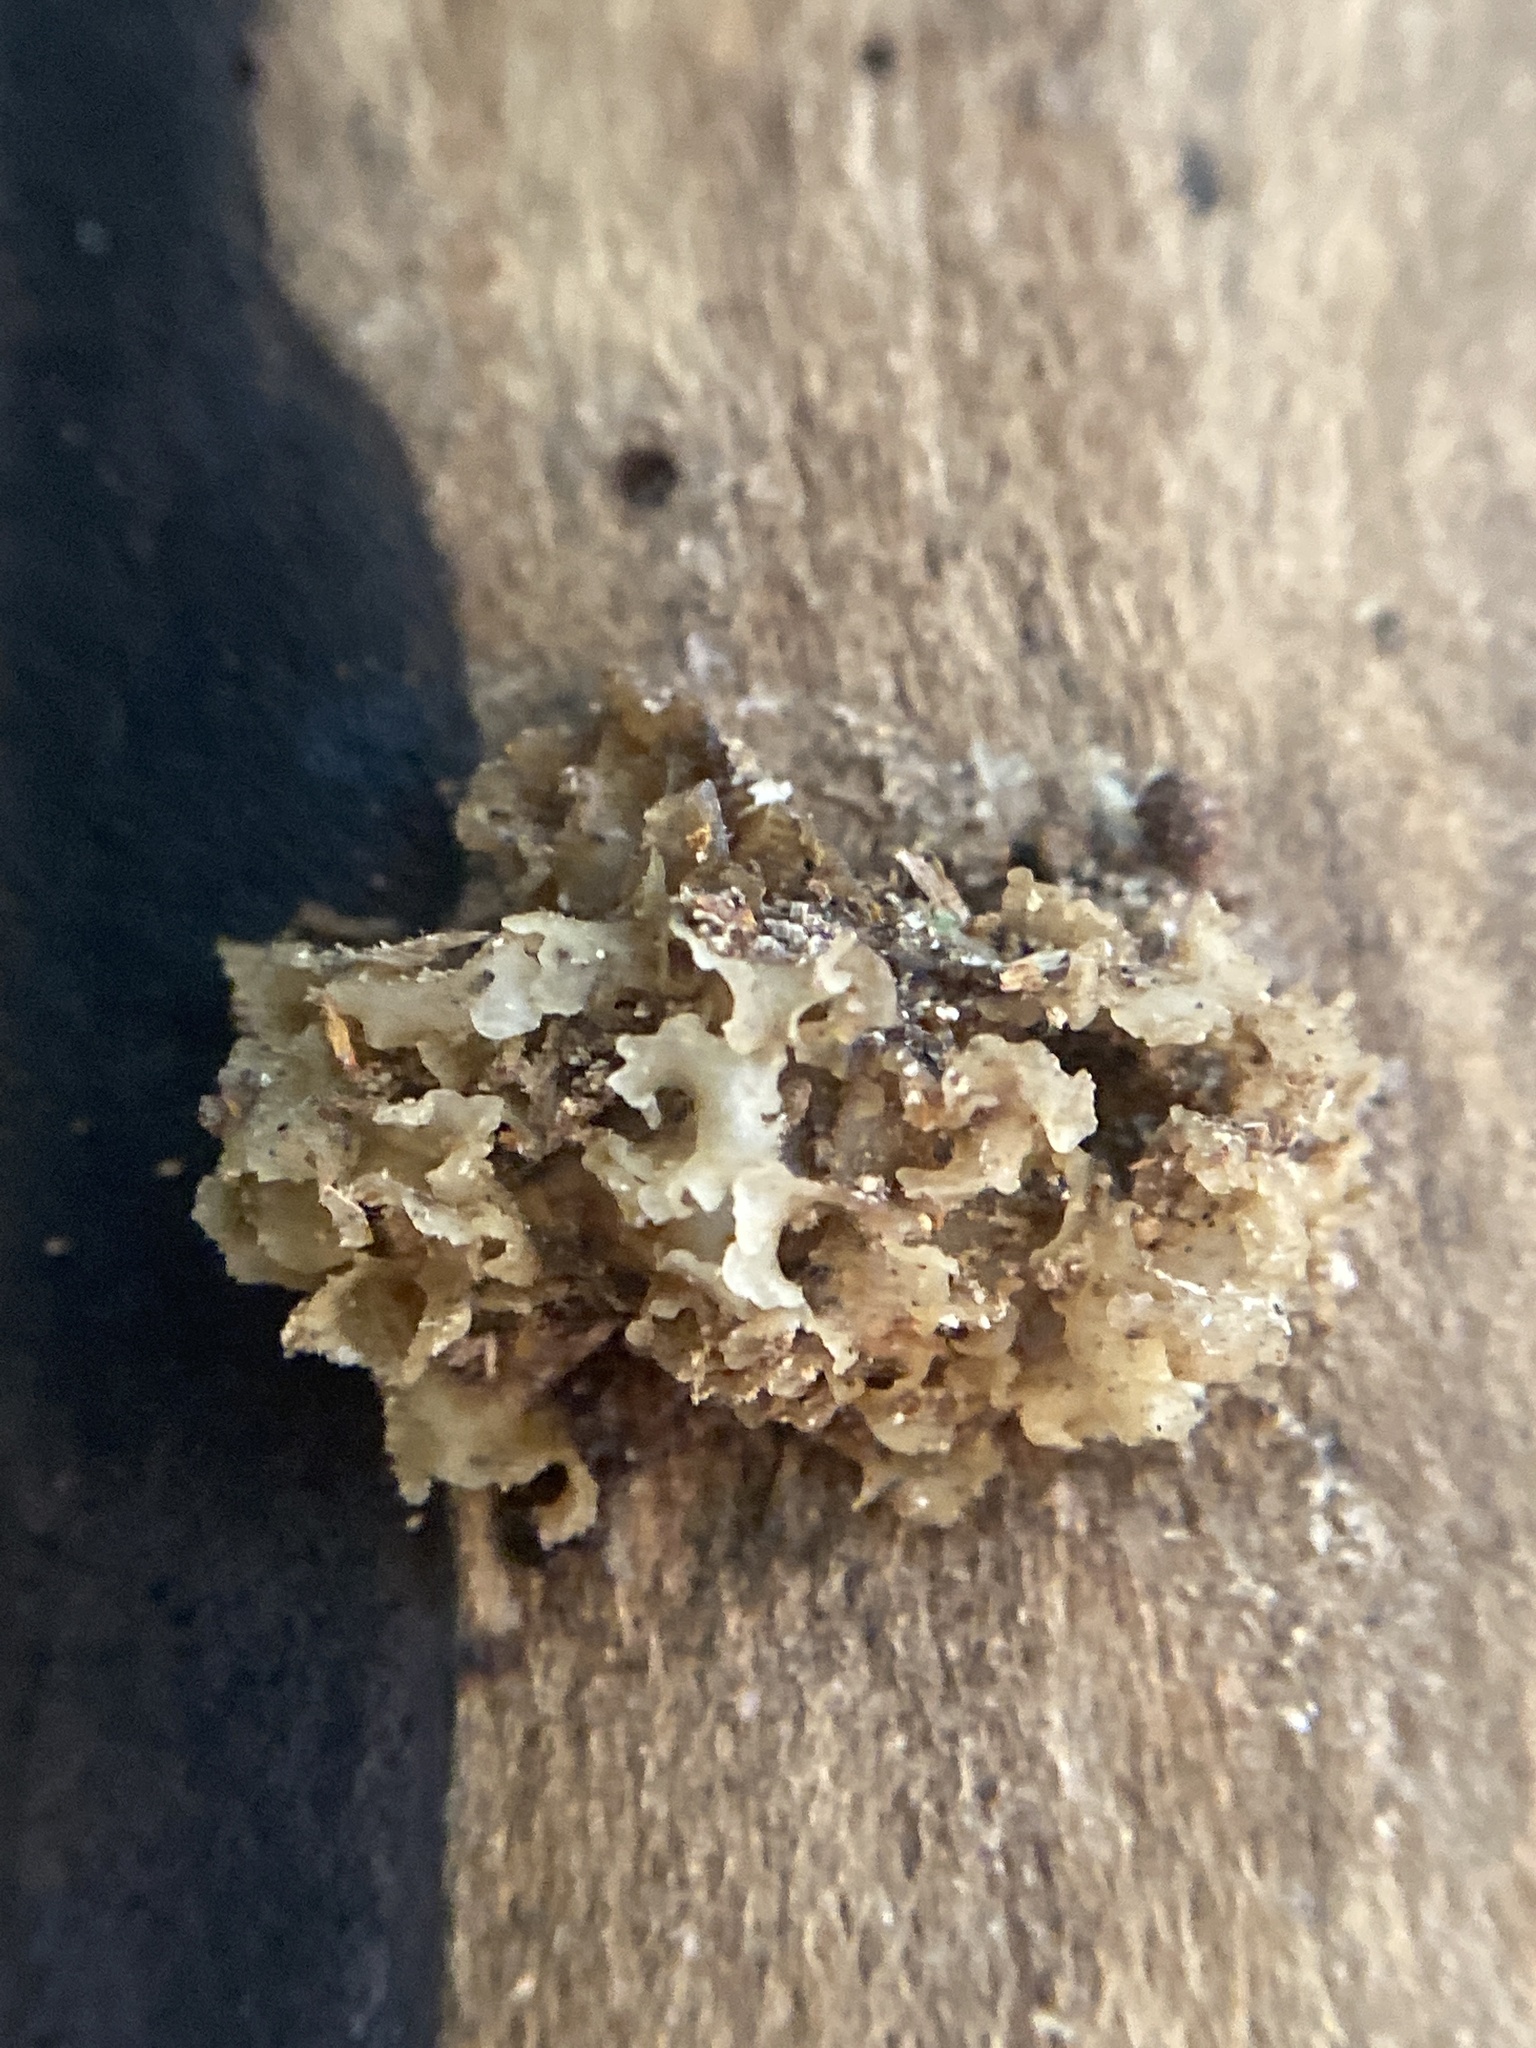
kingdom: Fungi
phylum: Basidiomycota
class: Tremellomycetes
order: Tremellales
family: Tremellaceae
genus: Tremella
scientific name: Tremella fuciformis
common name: Snow fungus
